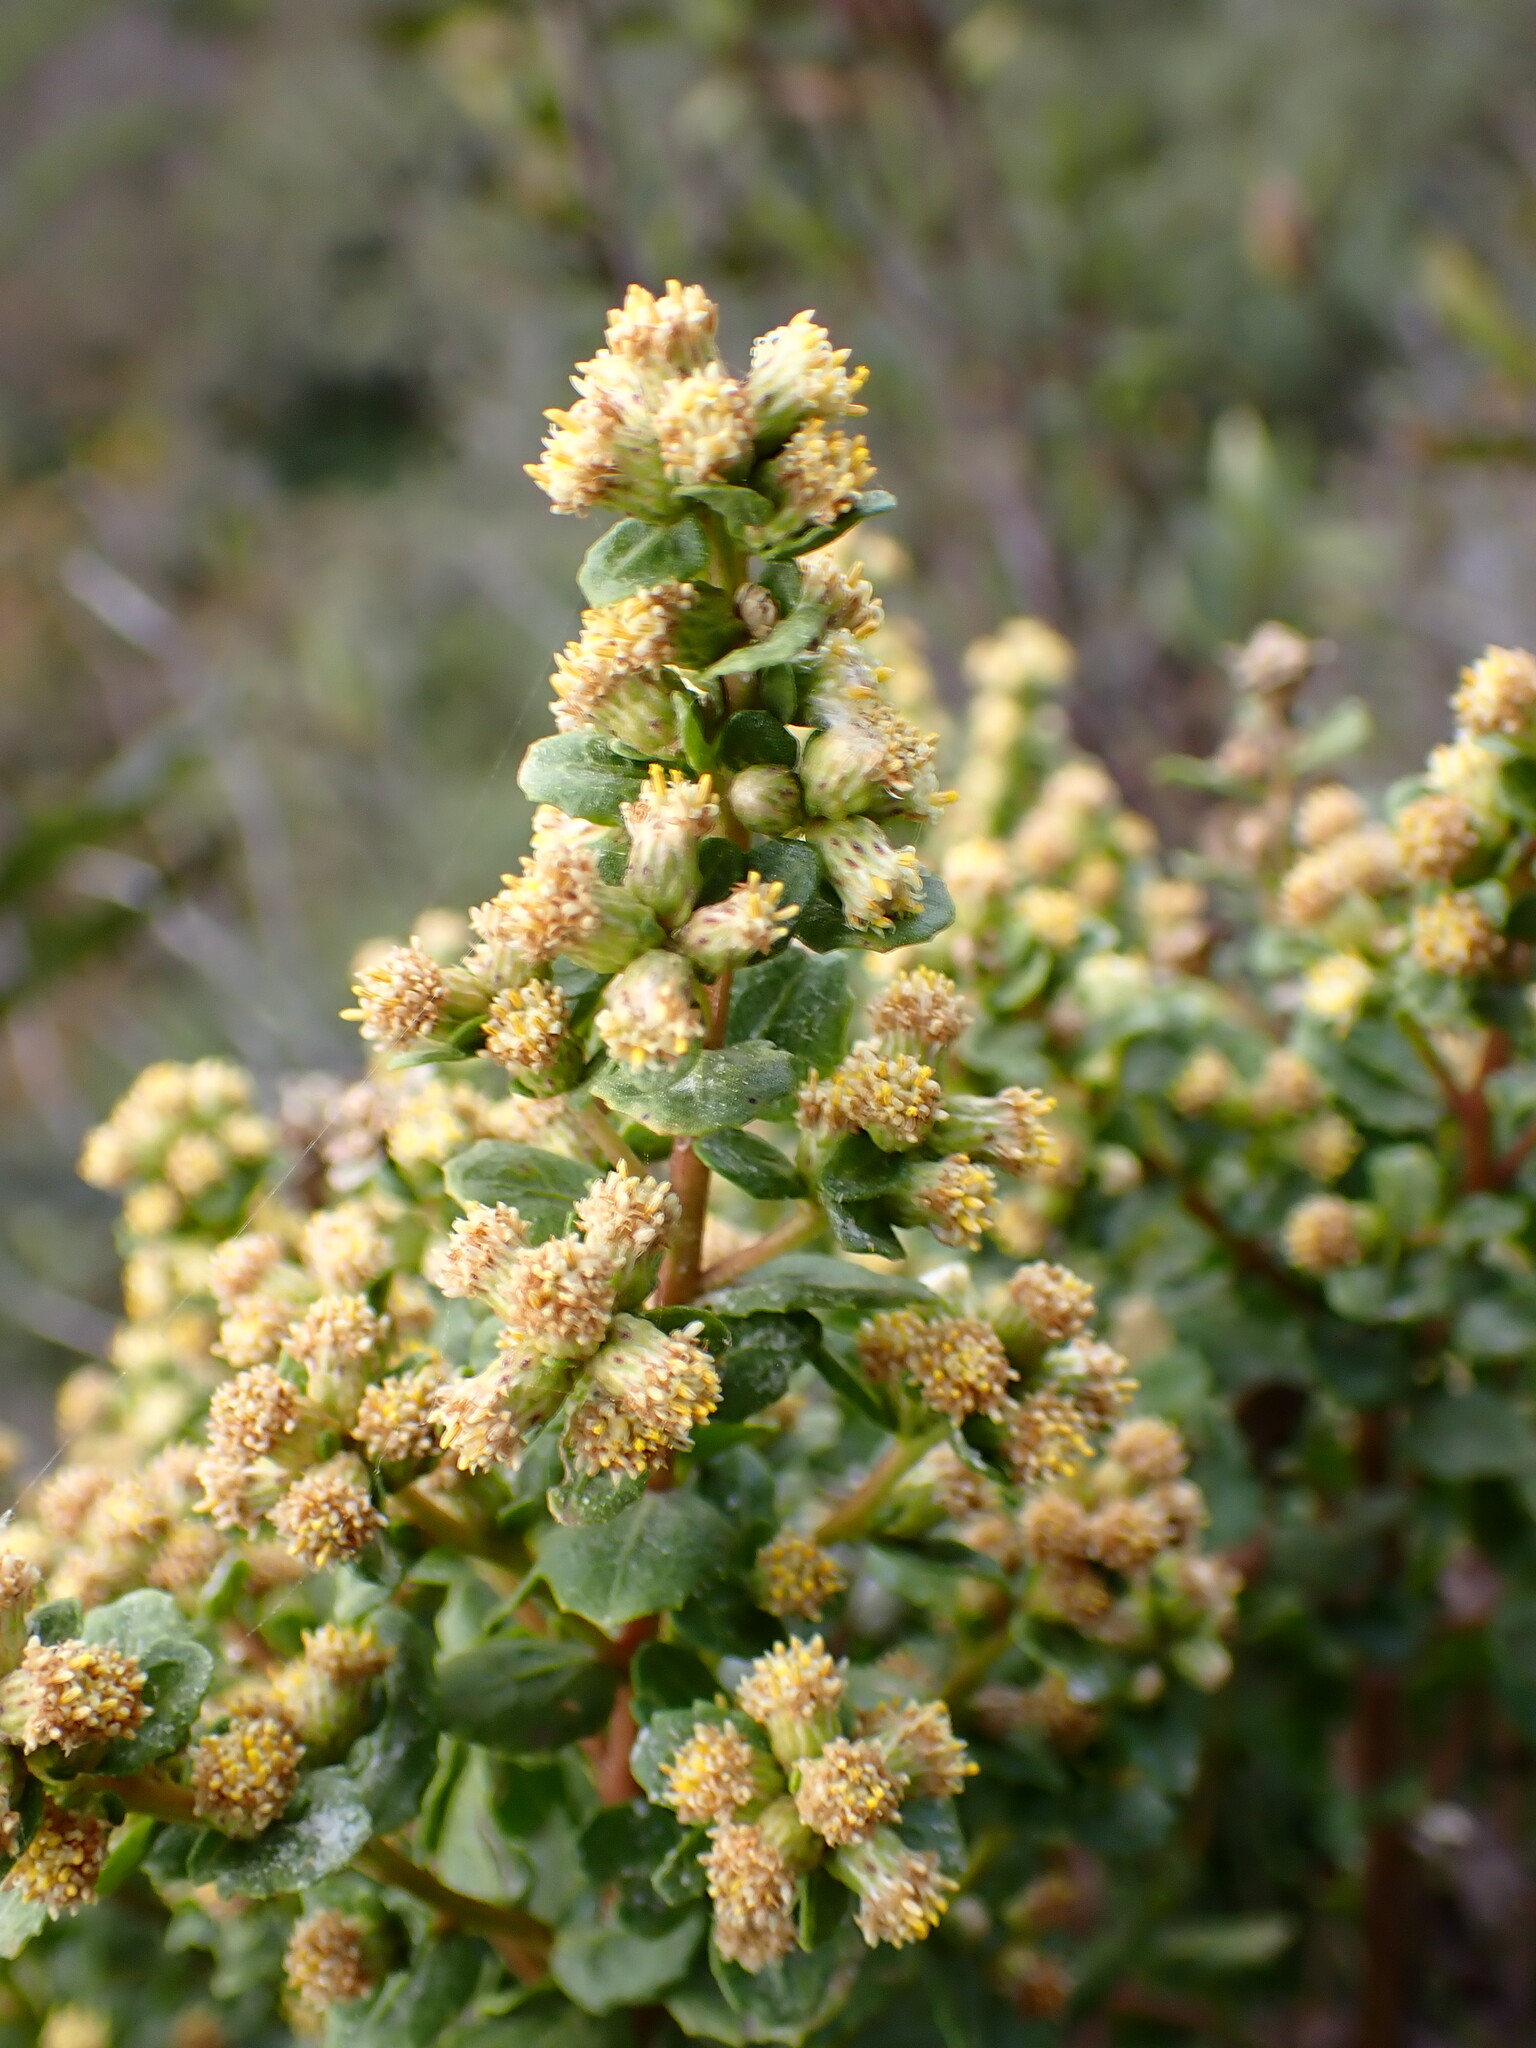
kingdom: Plantae
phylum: Tracheophyta
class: Magnoliopsida
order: Asterales
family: Asteraceae
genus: Baccharis
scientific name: Baccharis pilularis
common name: Coyotebrush
